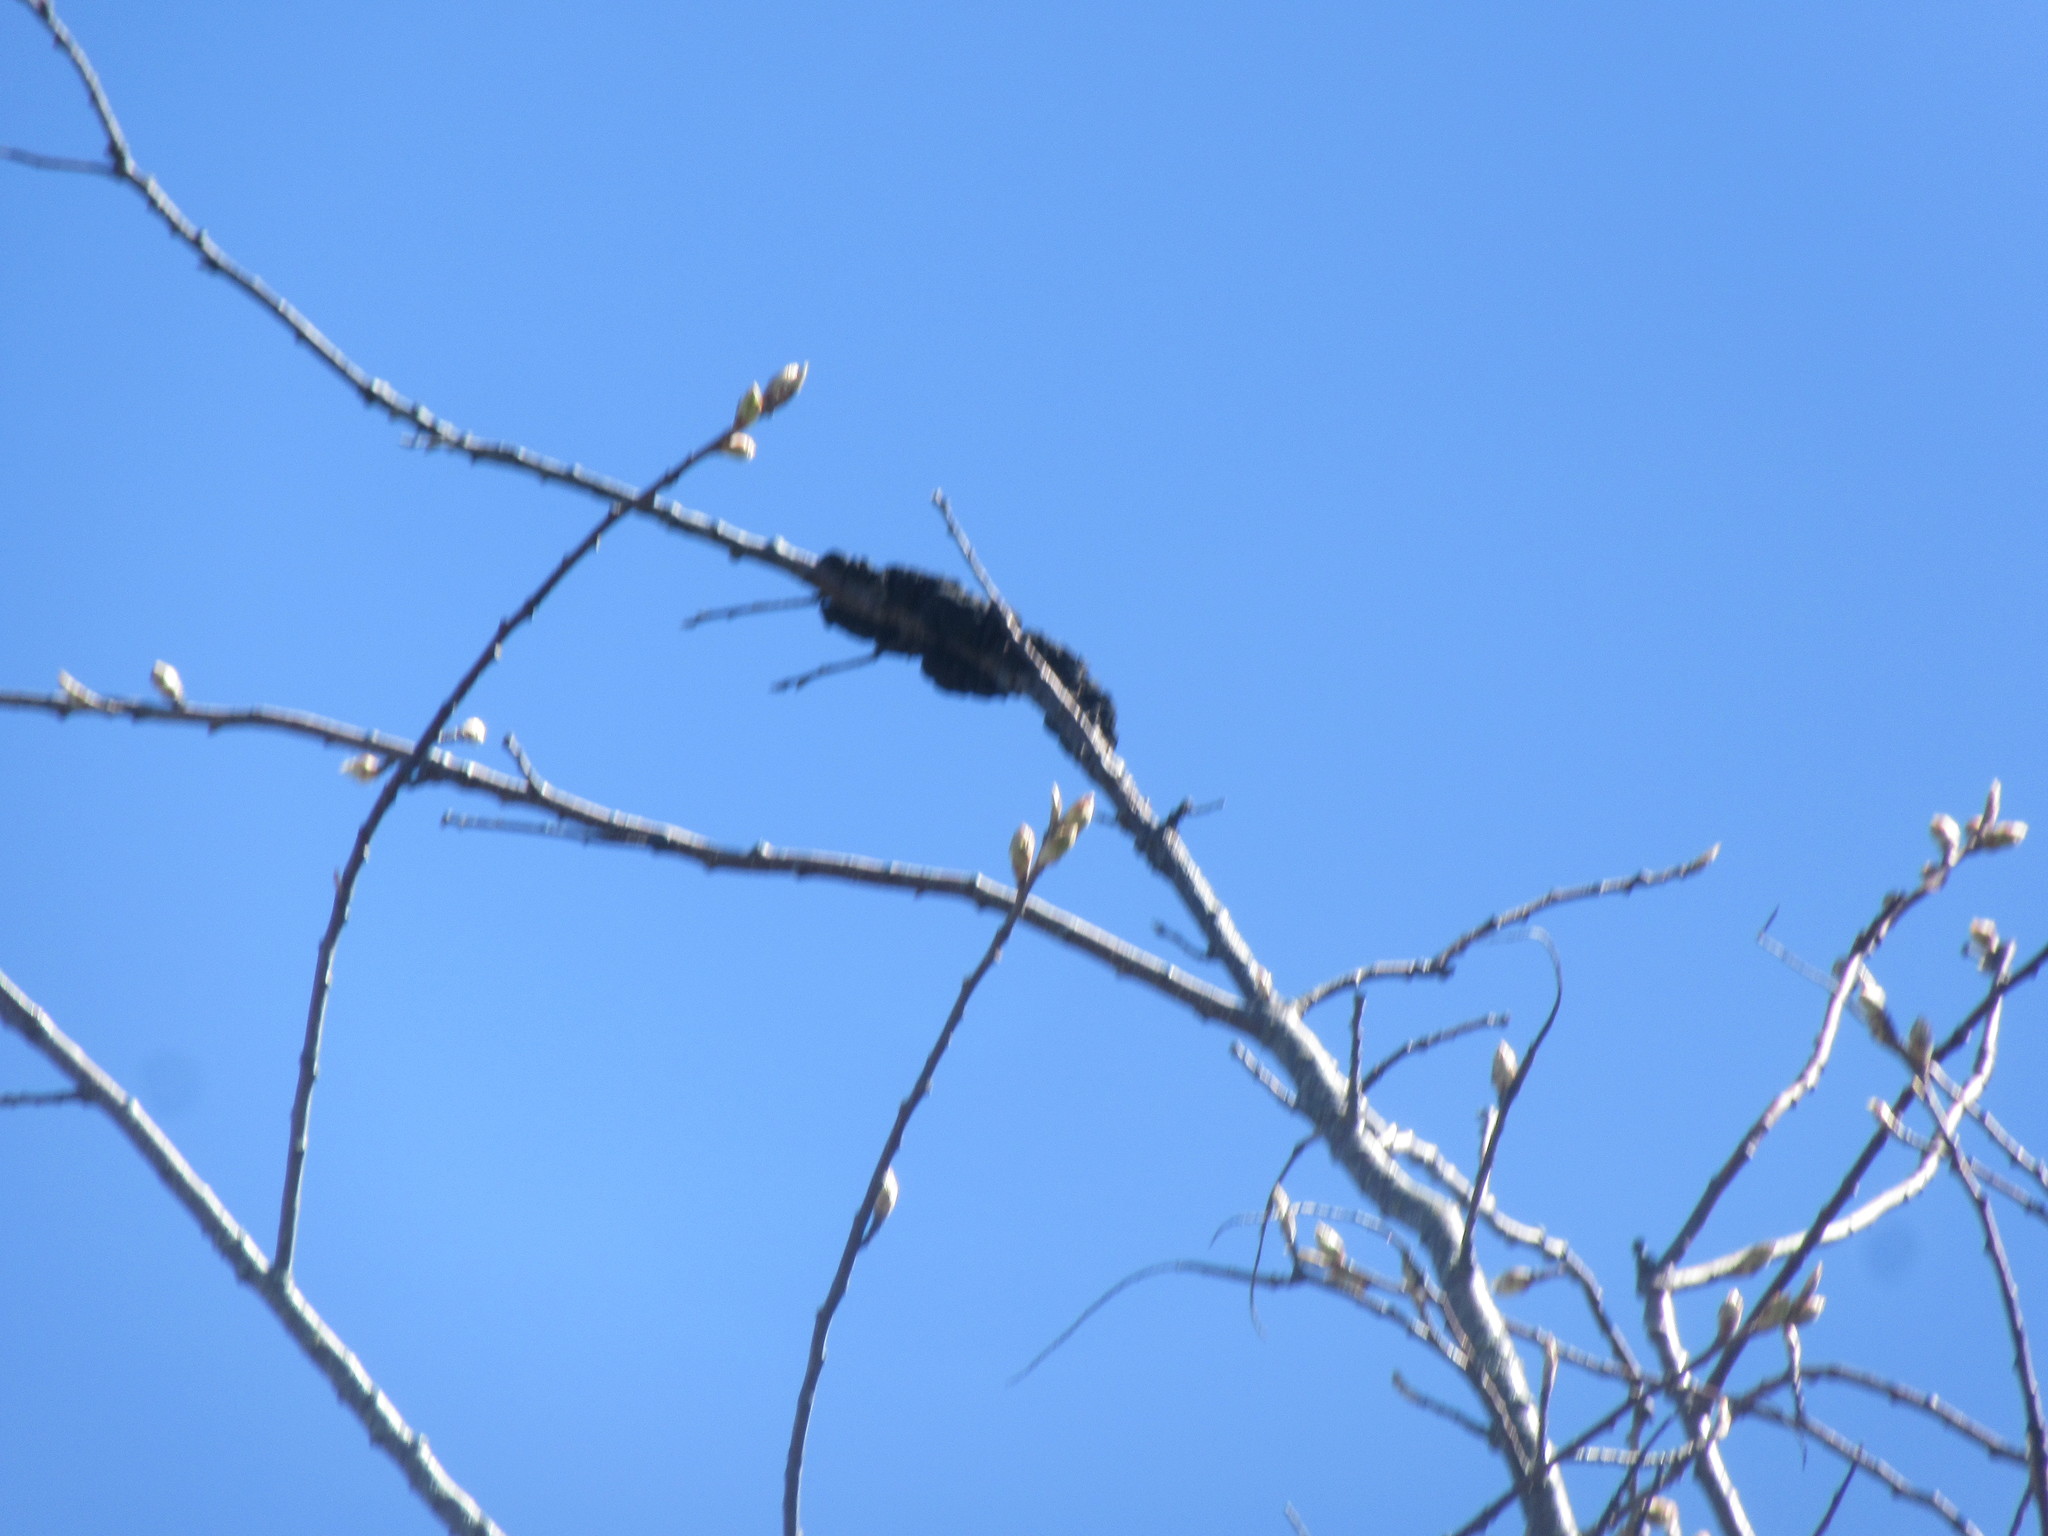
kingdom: Fungi
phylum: Ascomycota
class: Dothideomycetes
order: Venturiales
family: Venturiaceae
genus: Apiosporina
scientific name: Apiosporina morbosa
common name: Black knot
